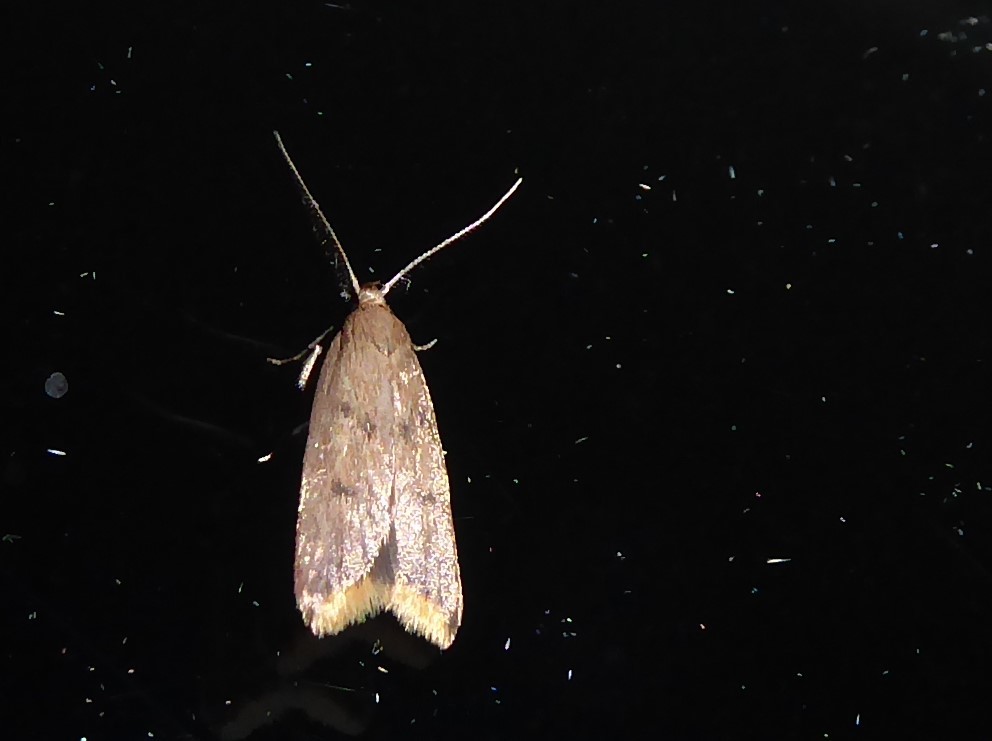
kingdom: Animalia
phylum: Arthropoda
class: Insecta
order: Lepidoptera
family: Oecophoridae
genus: Tachystola
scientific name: Tachystola acroxantha
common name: Ruddy streak
